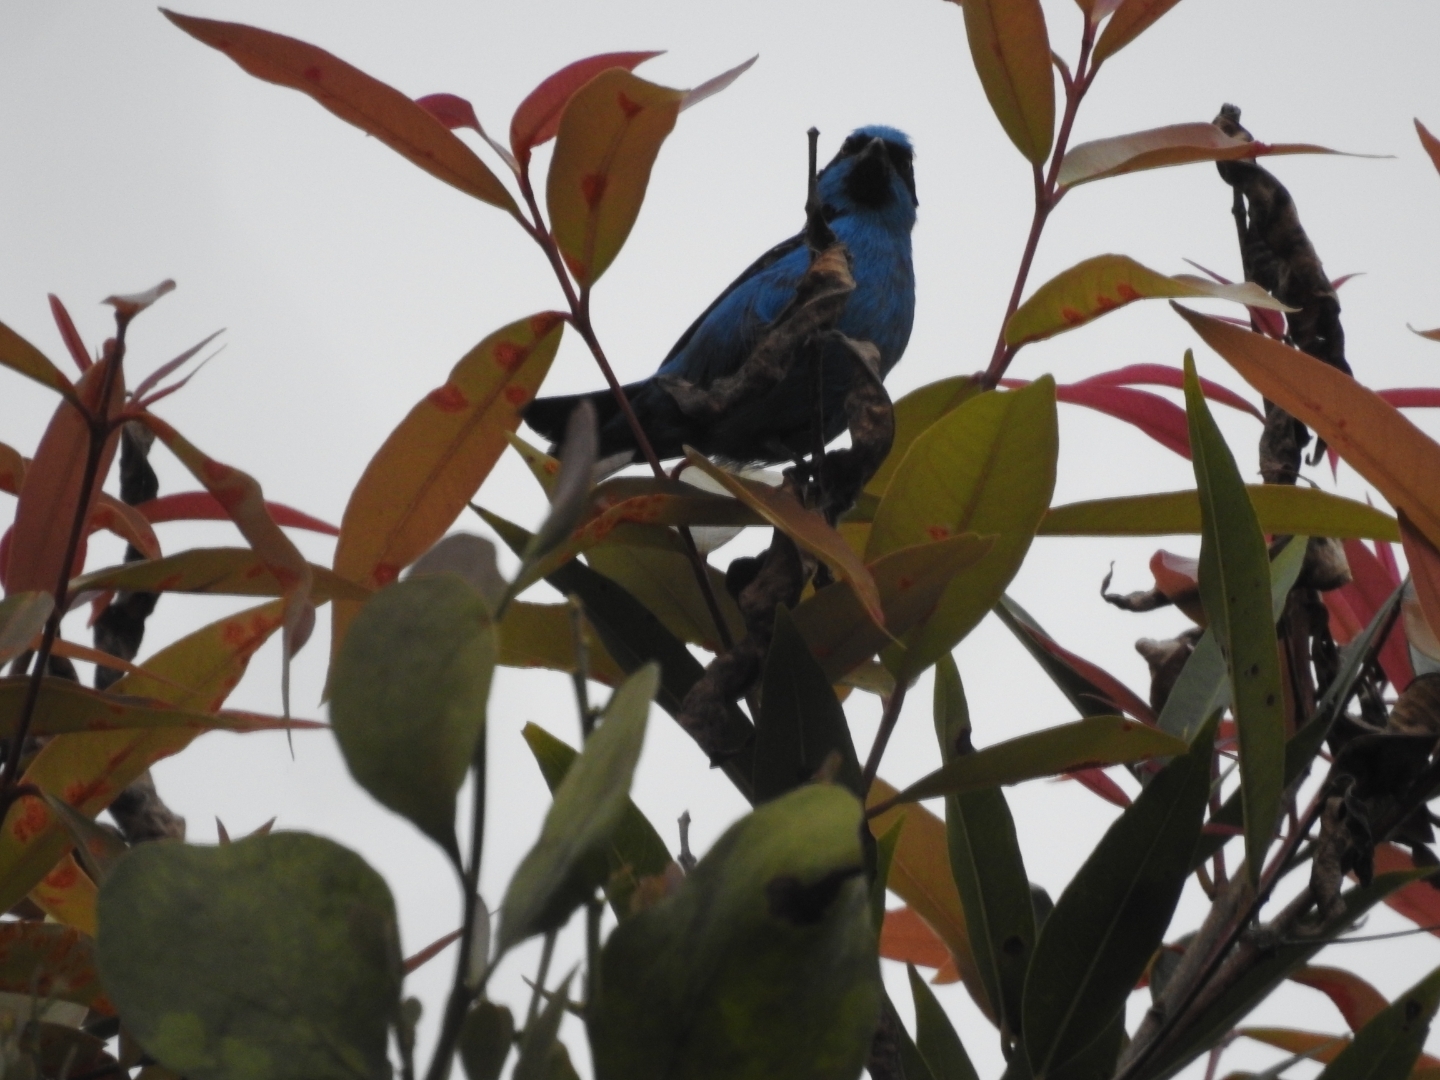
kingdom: Animalia
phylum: Chordata
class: Aves
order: Passeriformes
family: Thraupidae
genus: Dacnis
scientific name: Dacnis hartlaubi
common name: Turquoise dacnis
